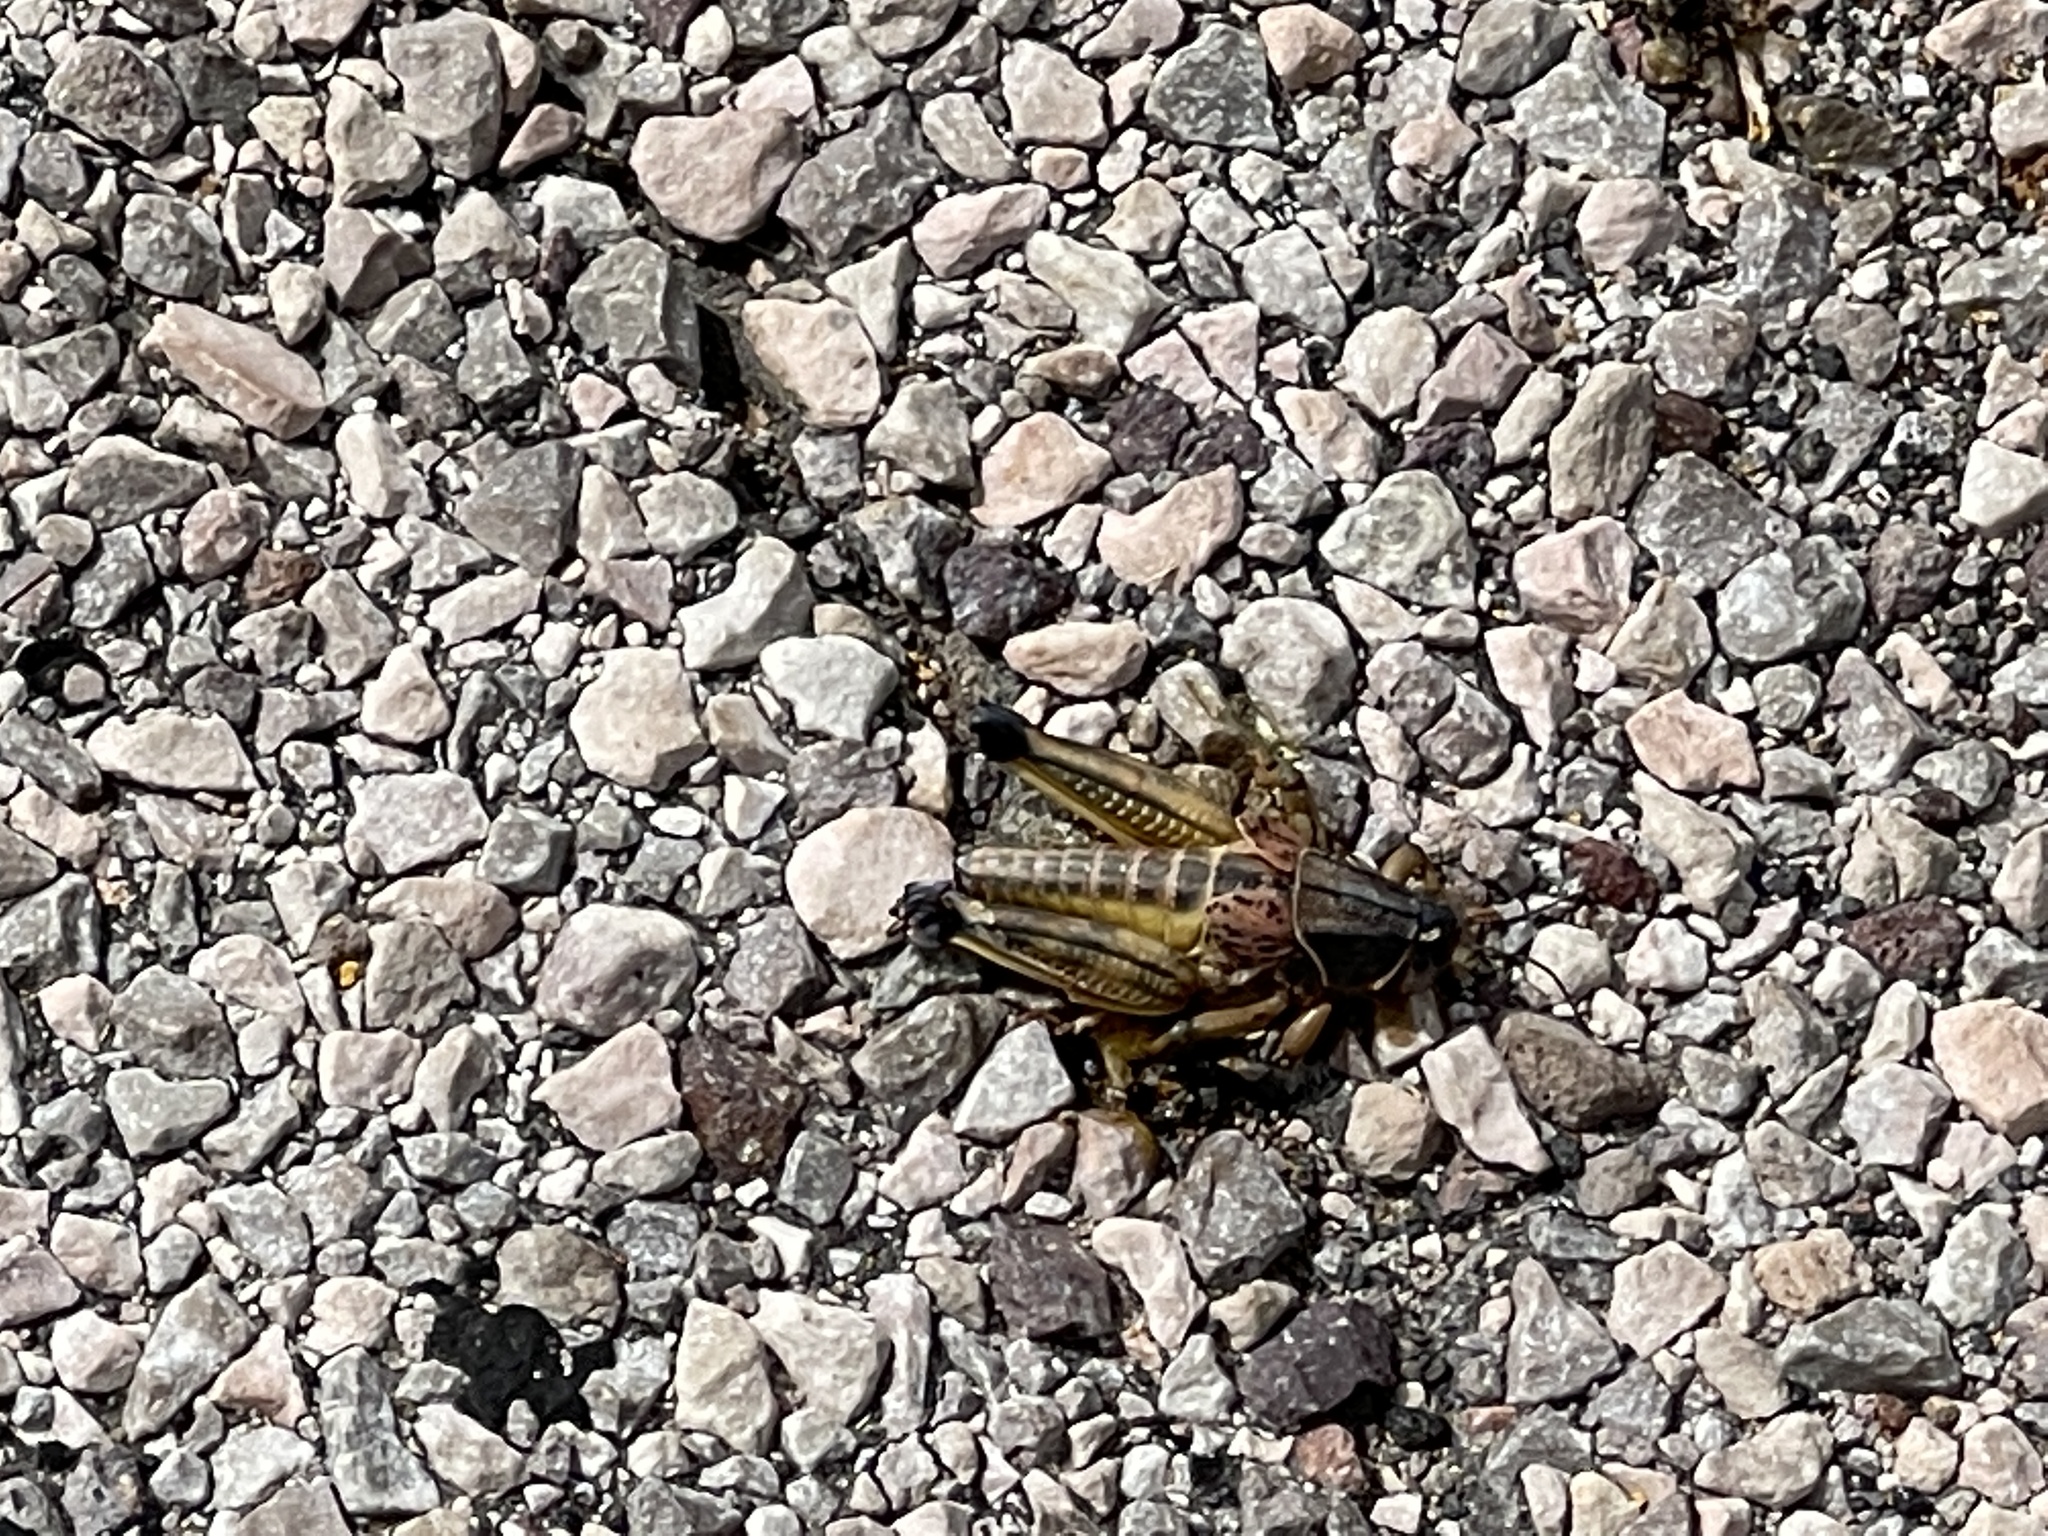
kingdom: Animalia
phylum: Arthropoda
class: Insecta
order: Orthoptera
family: Romaleidae
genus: Brachystola
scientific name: Brachystola magna
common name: Plains lubber grasshopper
